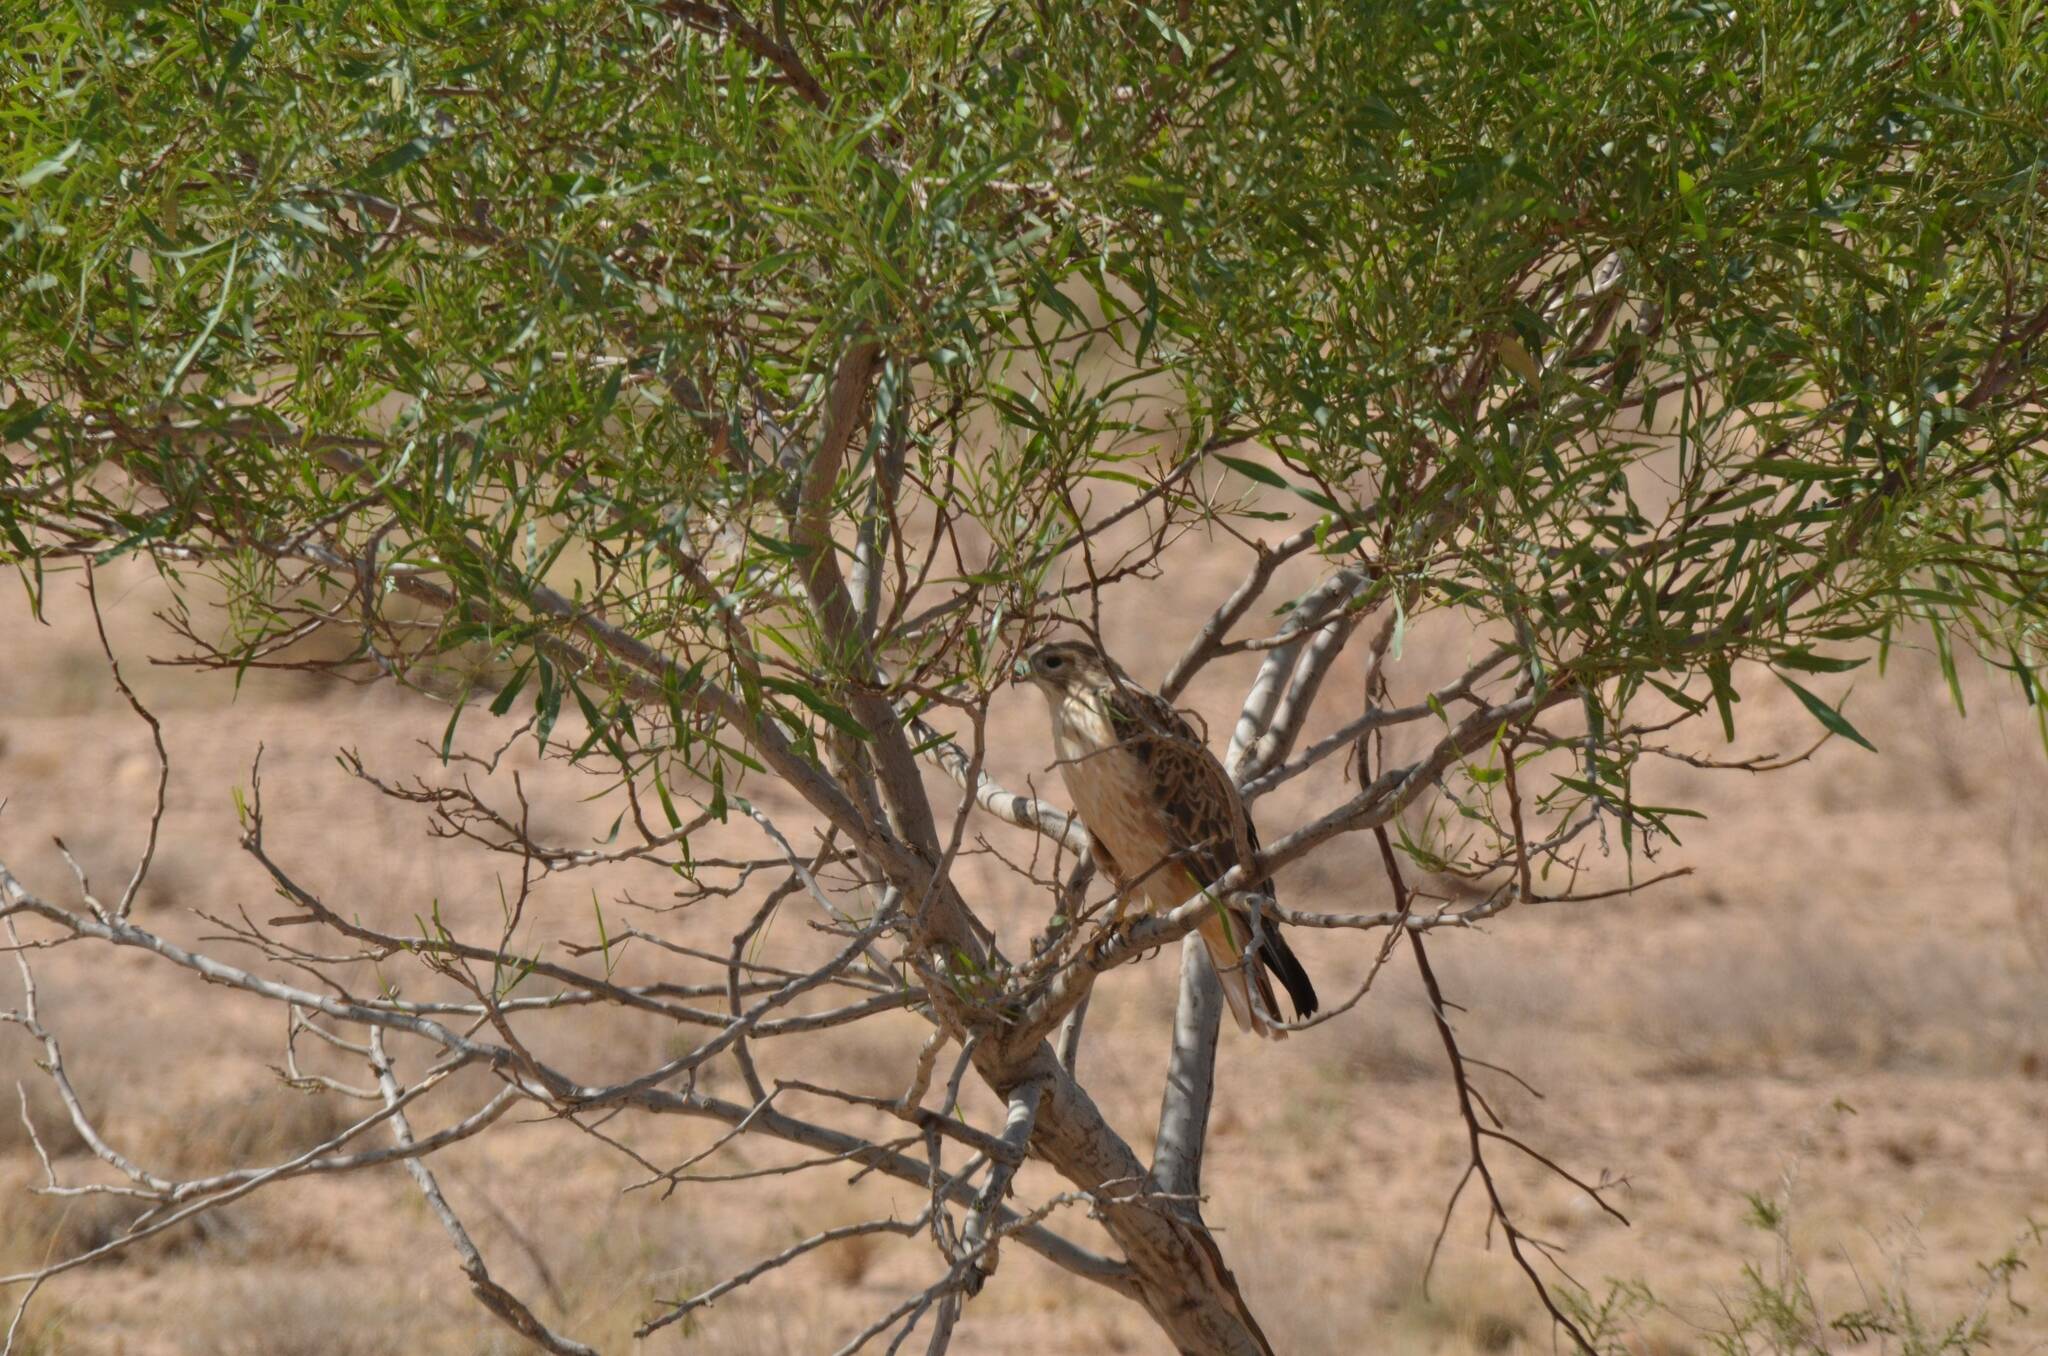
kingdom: Animalia
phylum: Chordata
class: Aves
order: Accipitriformes
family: Accipitridae
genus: Buteo
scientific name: Buteo rufinus
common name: Long-legged buzzard
